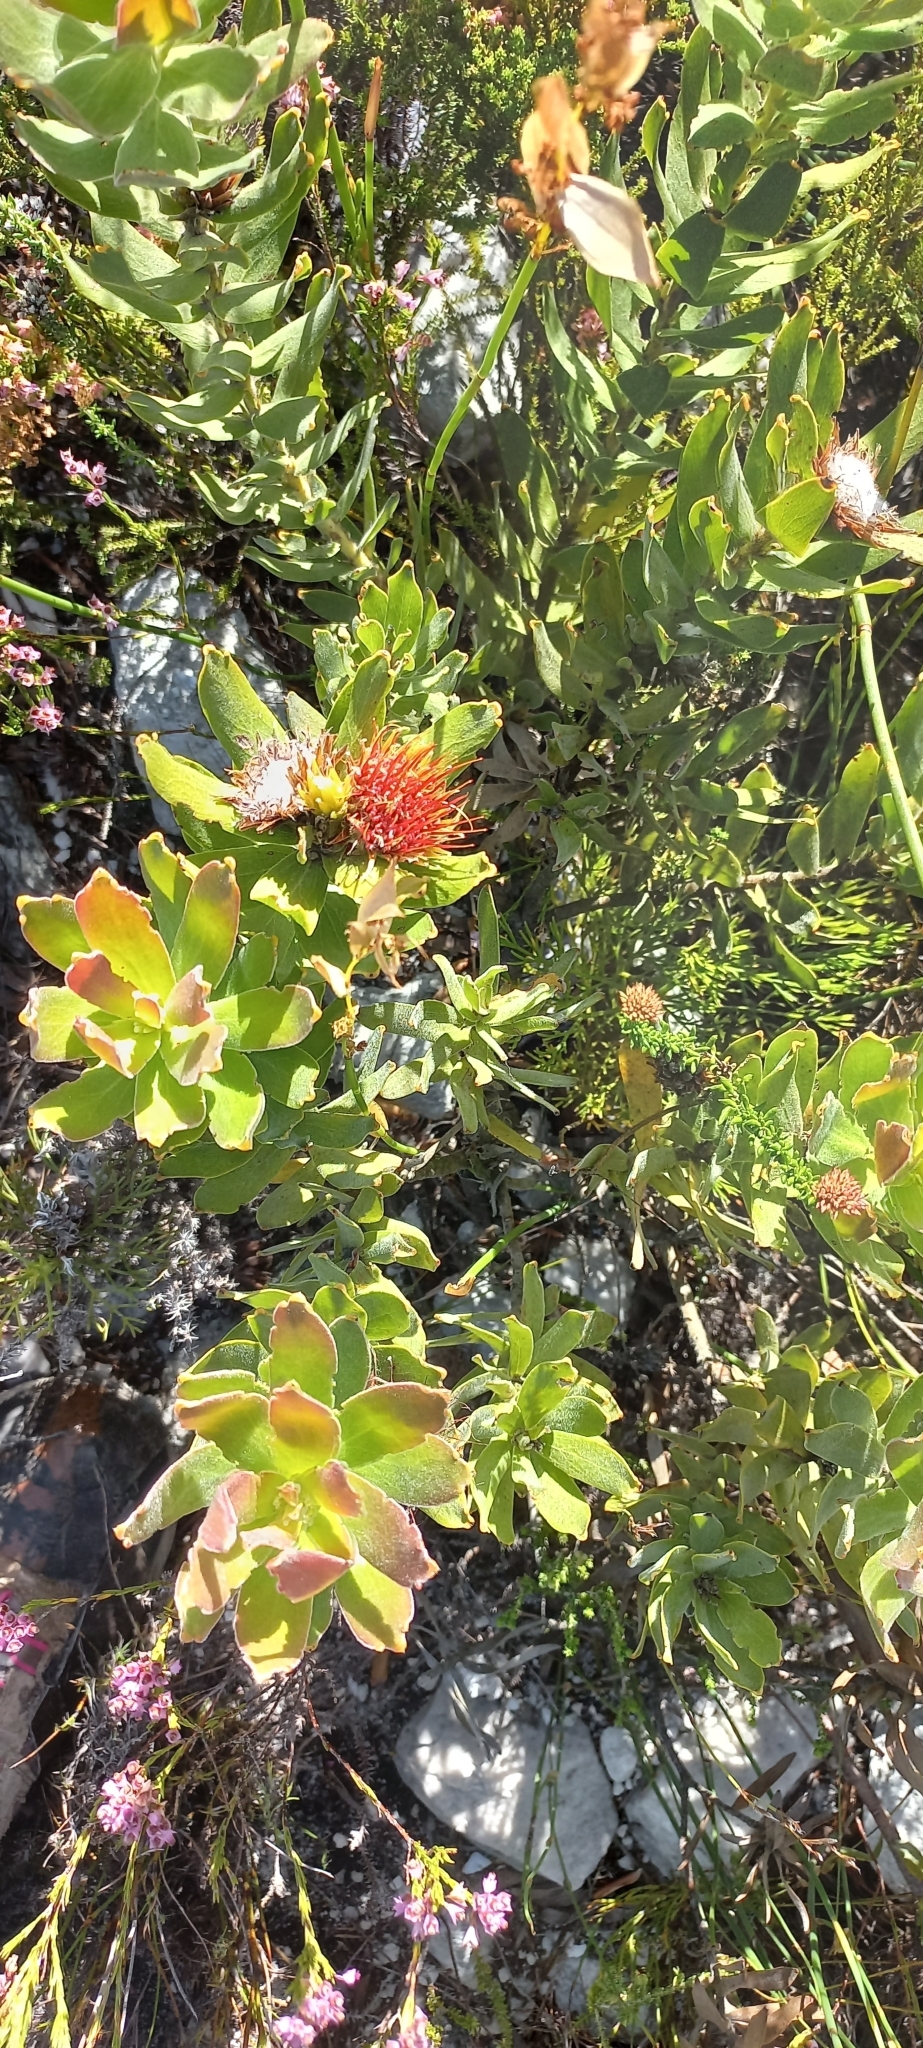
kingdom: Plantae
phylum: Tracheophyta
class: Magnoliopsida
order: Proteales
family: Proteaceae
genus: Leucospermum
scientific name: Leucospermum oleifolium
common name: Matches
